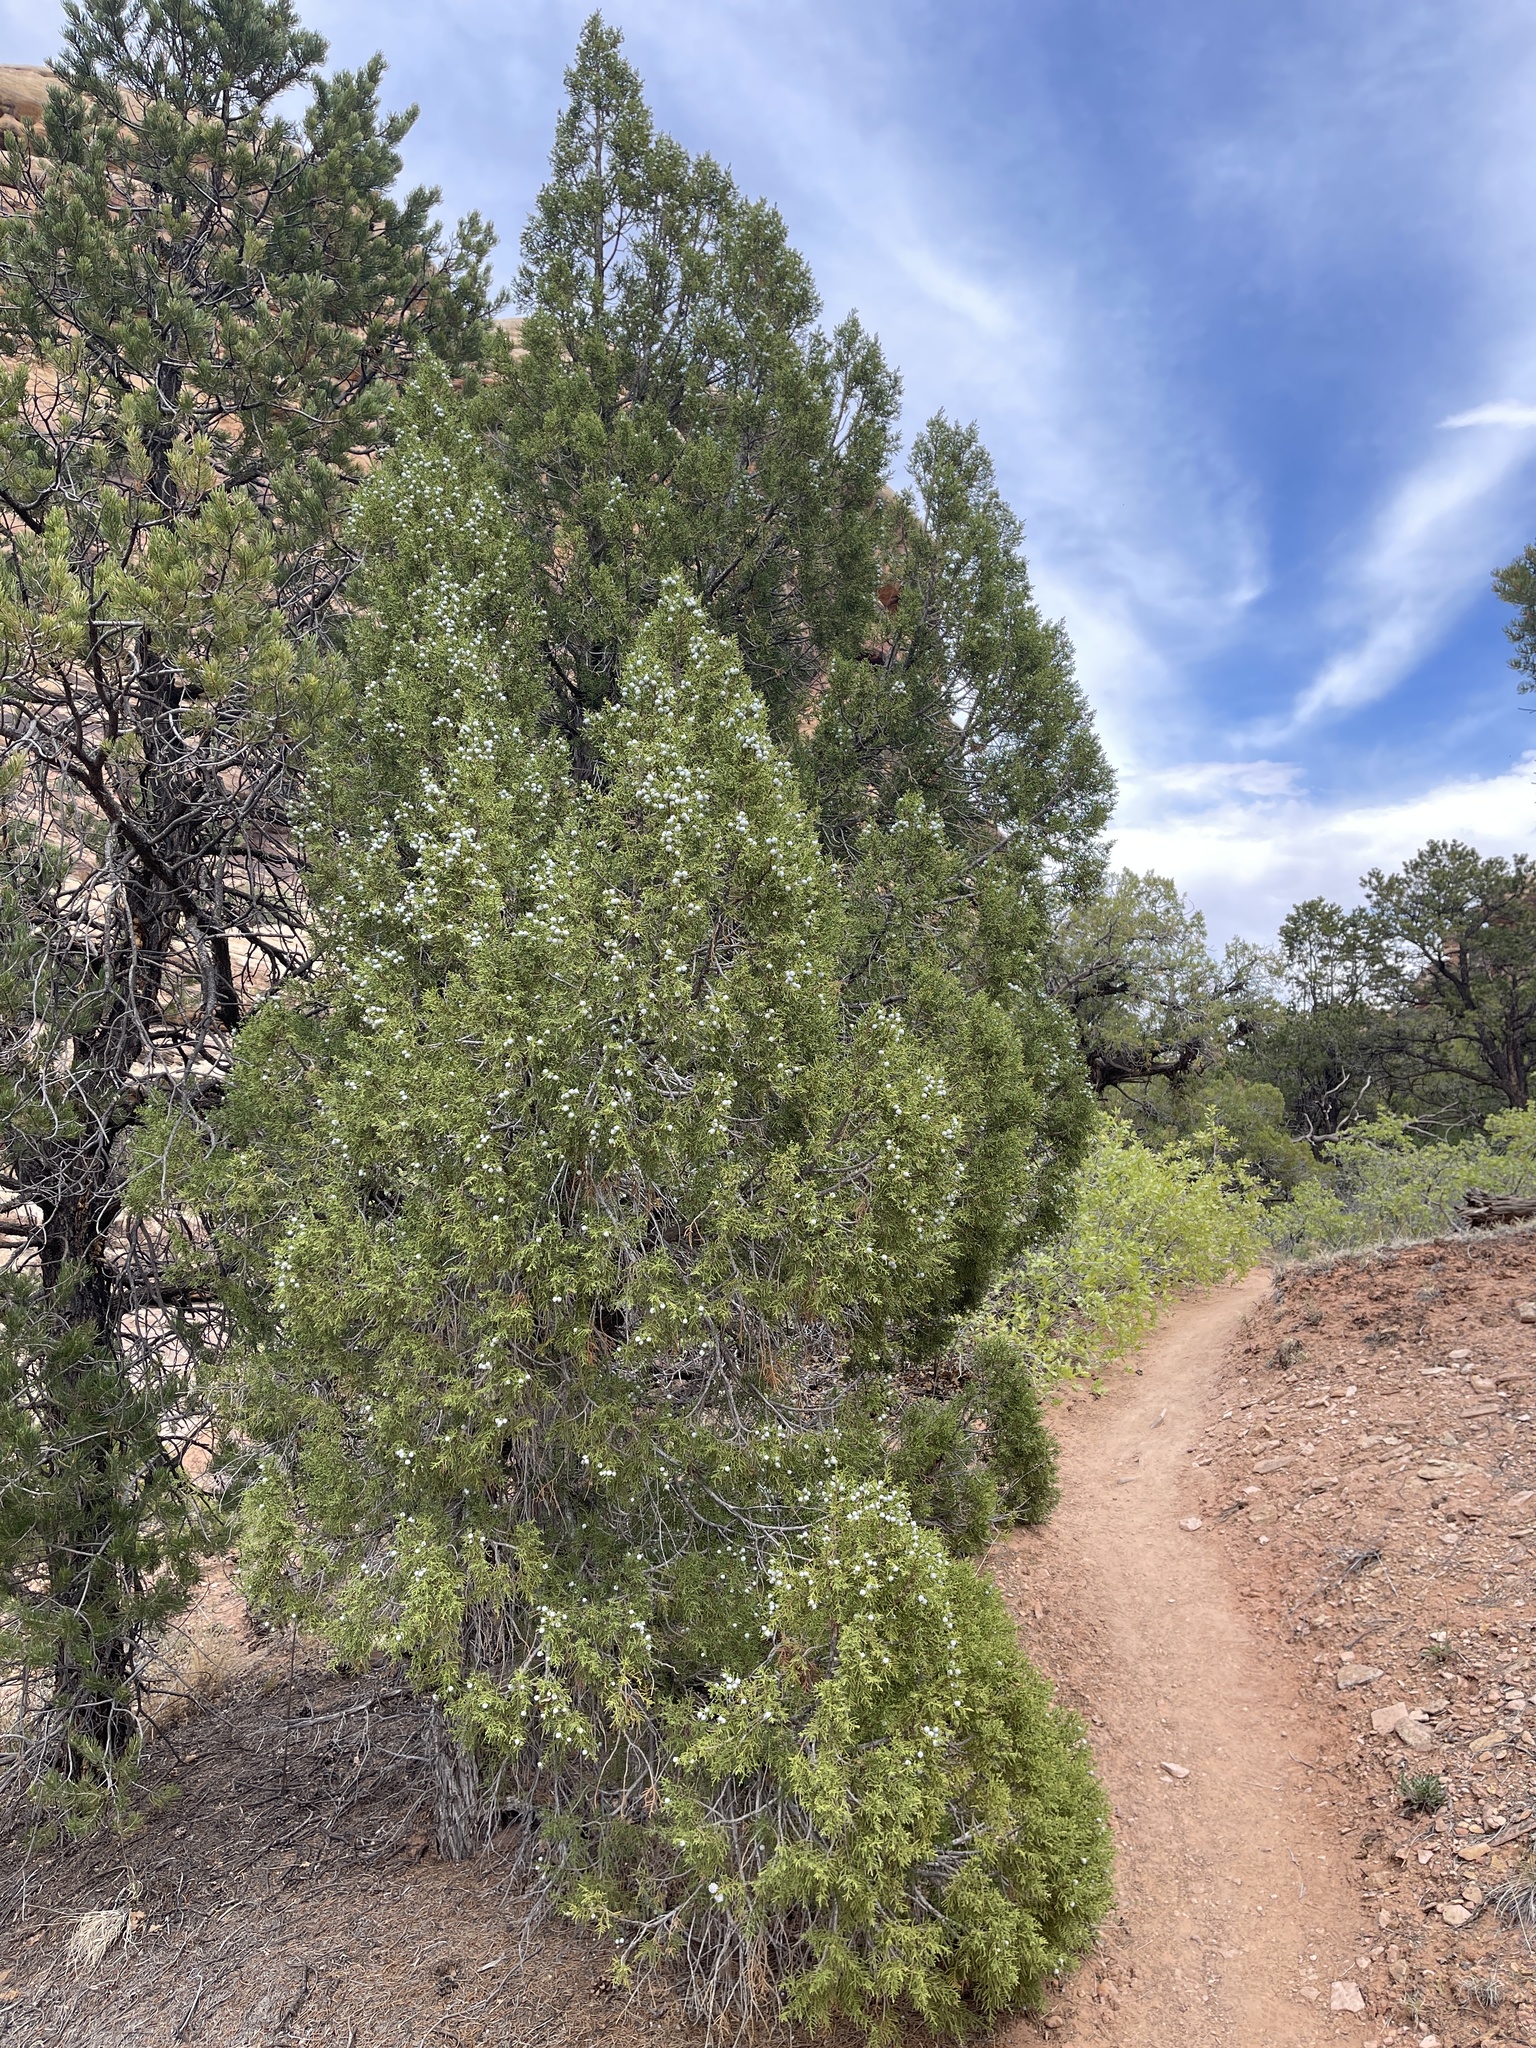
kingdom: Plantae
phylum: Tracheophyta
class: Pinopsida
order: Pinales
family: Cupressaceae
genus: Juniperus
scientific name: Juniperus osteosperma
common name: Utah juniper
